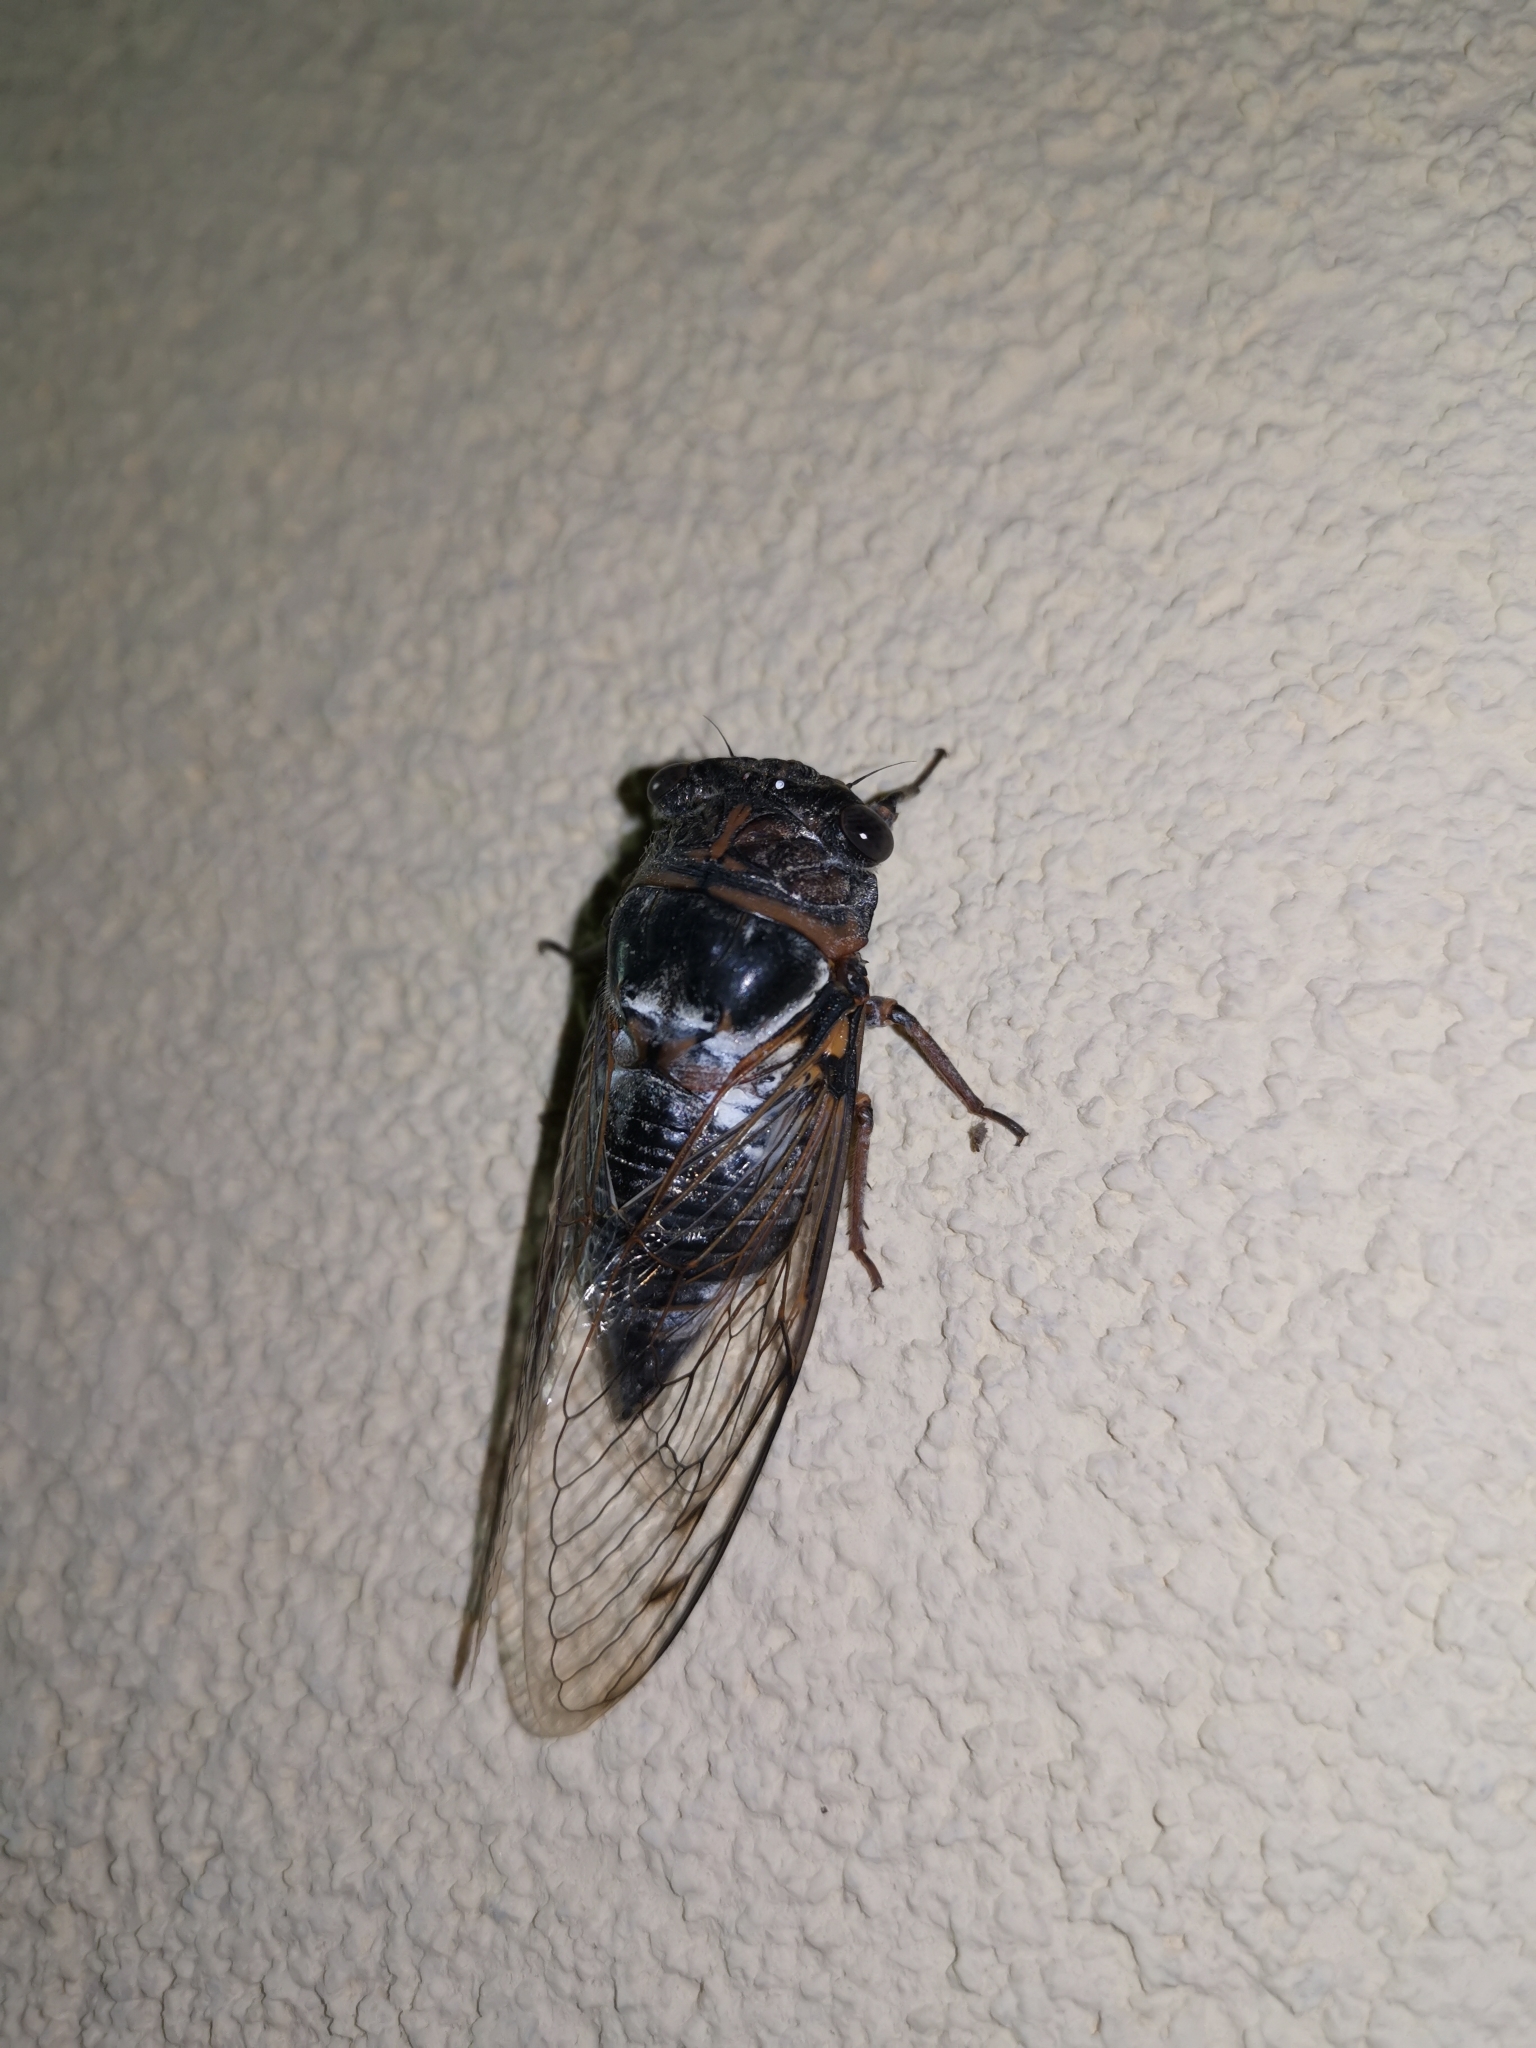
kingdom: Animalia
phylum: Arthropoda
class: Insecta
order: Hemiptera
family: Cicadidae
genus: Lyristes
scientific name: Lyristes plebejus
